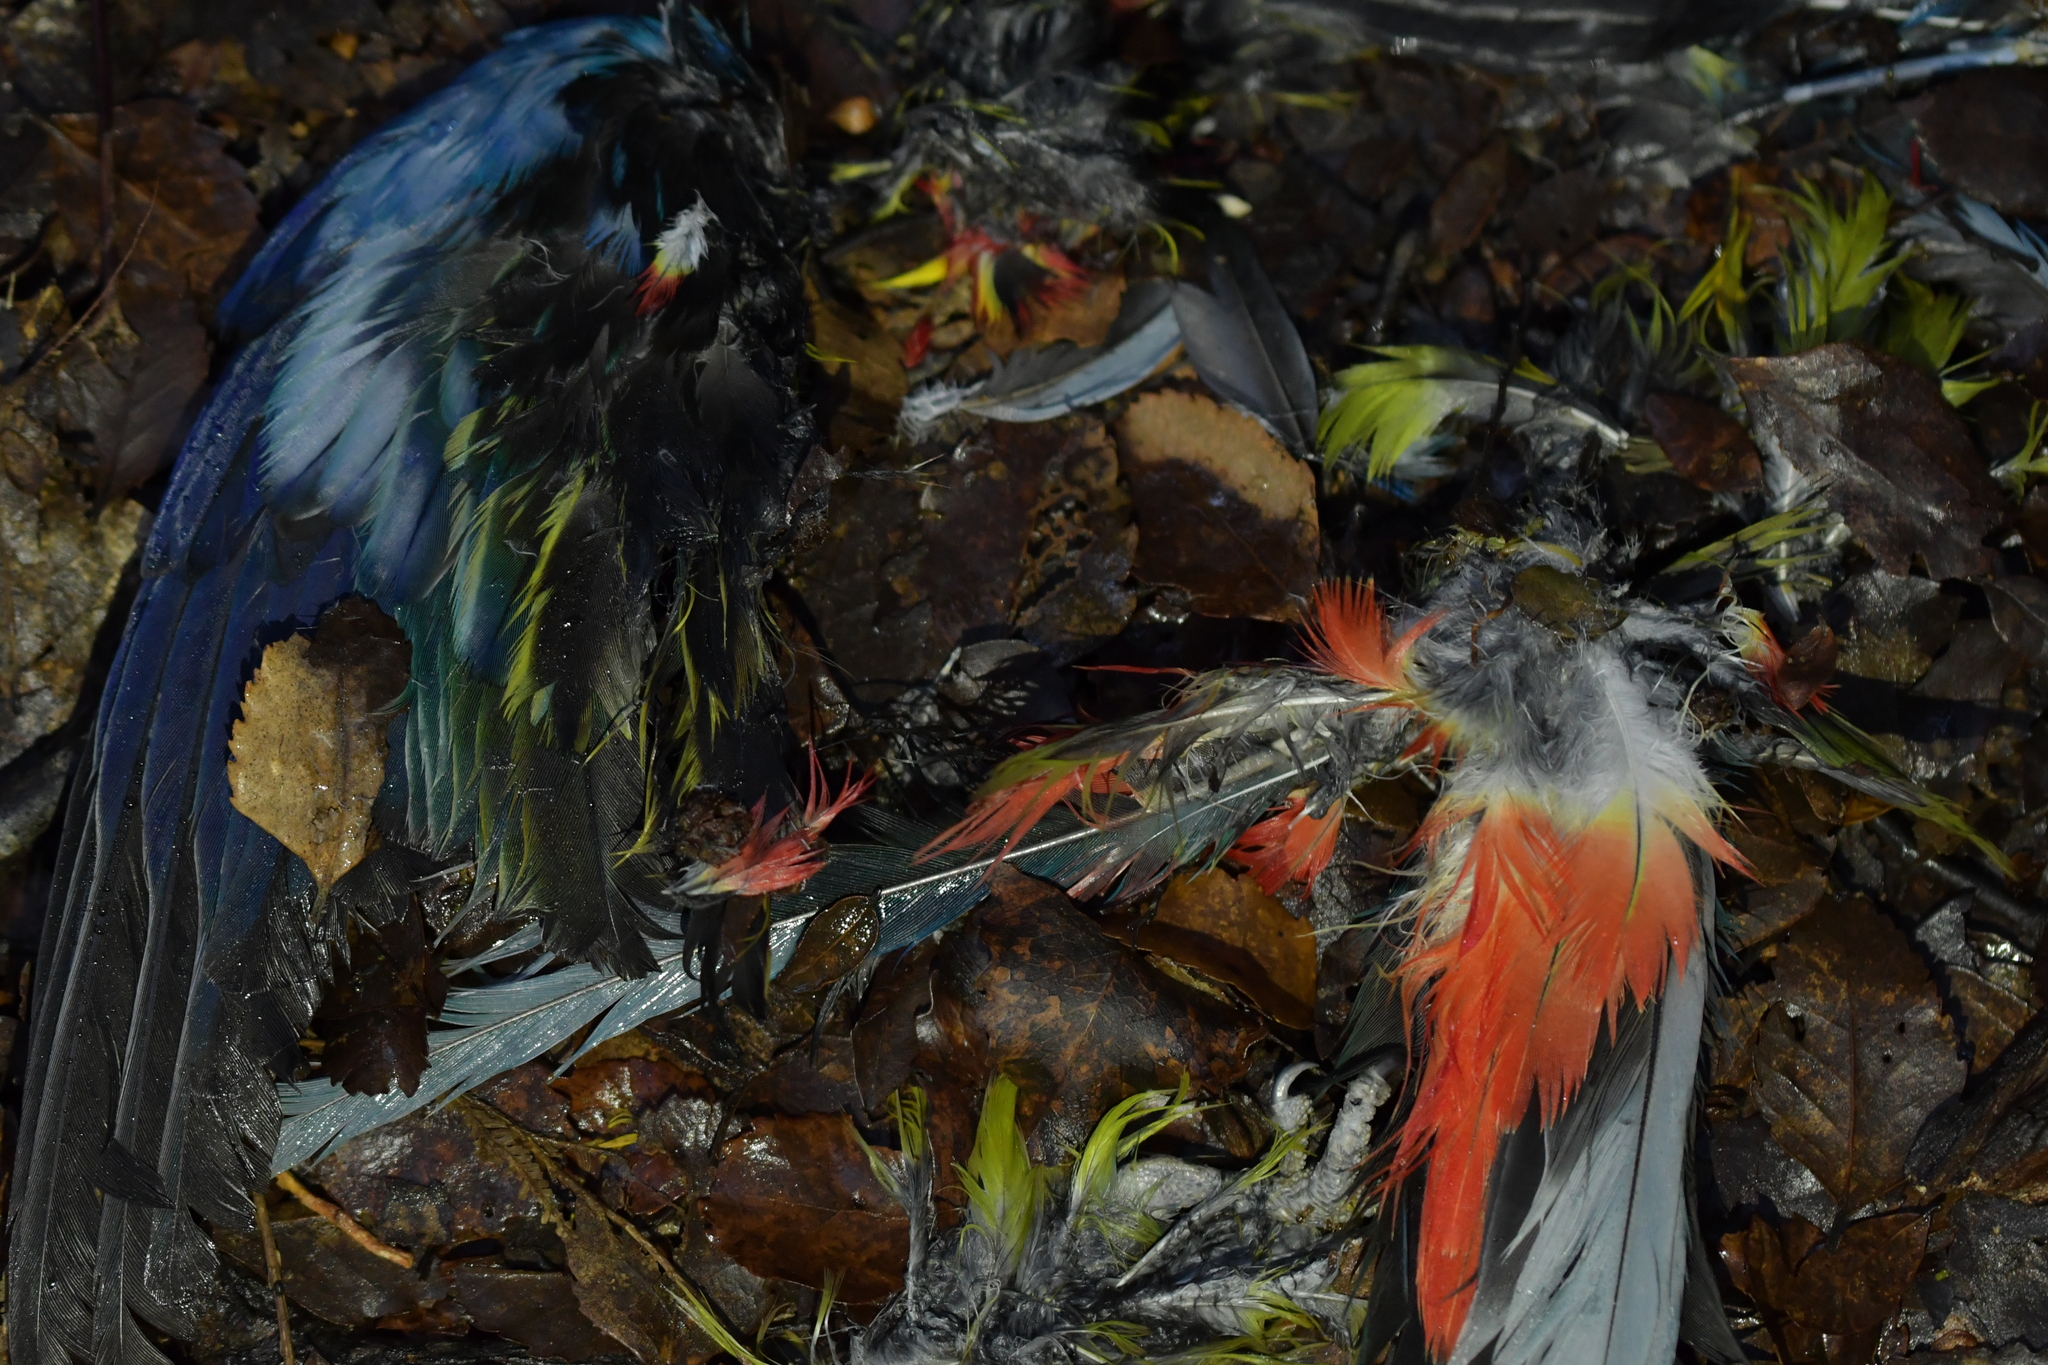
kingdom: Animalia
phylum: Chordata
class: Aves
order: Psittaciformes
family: Psittacidae
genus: Platycercus
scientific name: Platycercus eximius
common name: Eastern rosella
